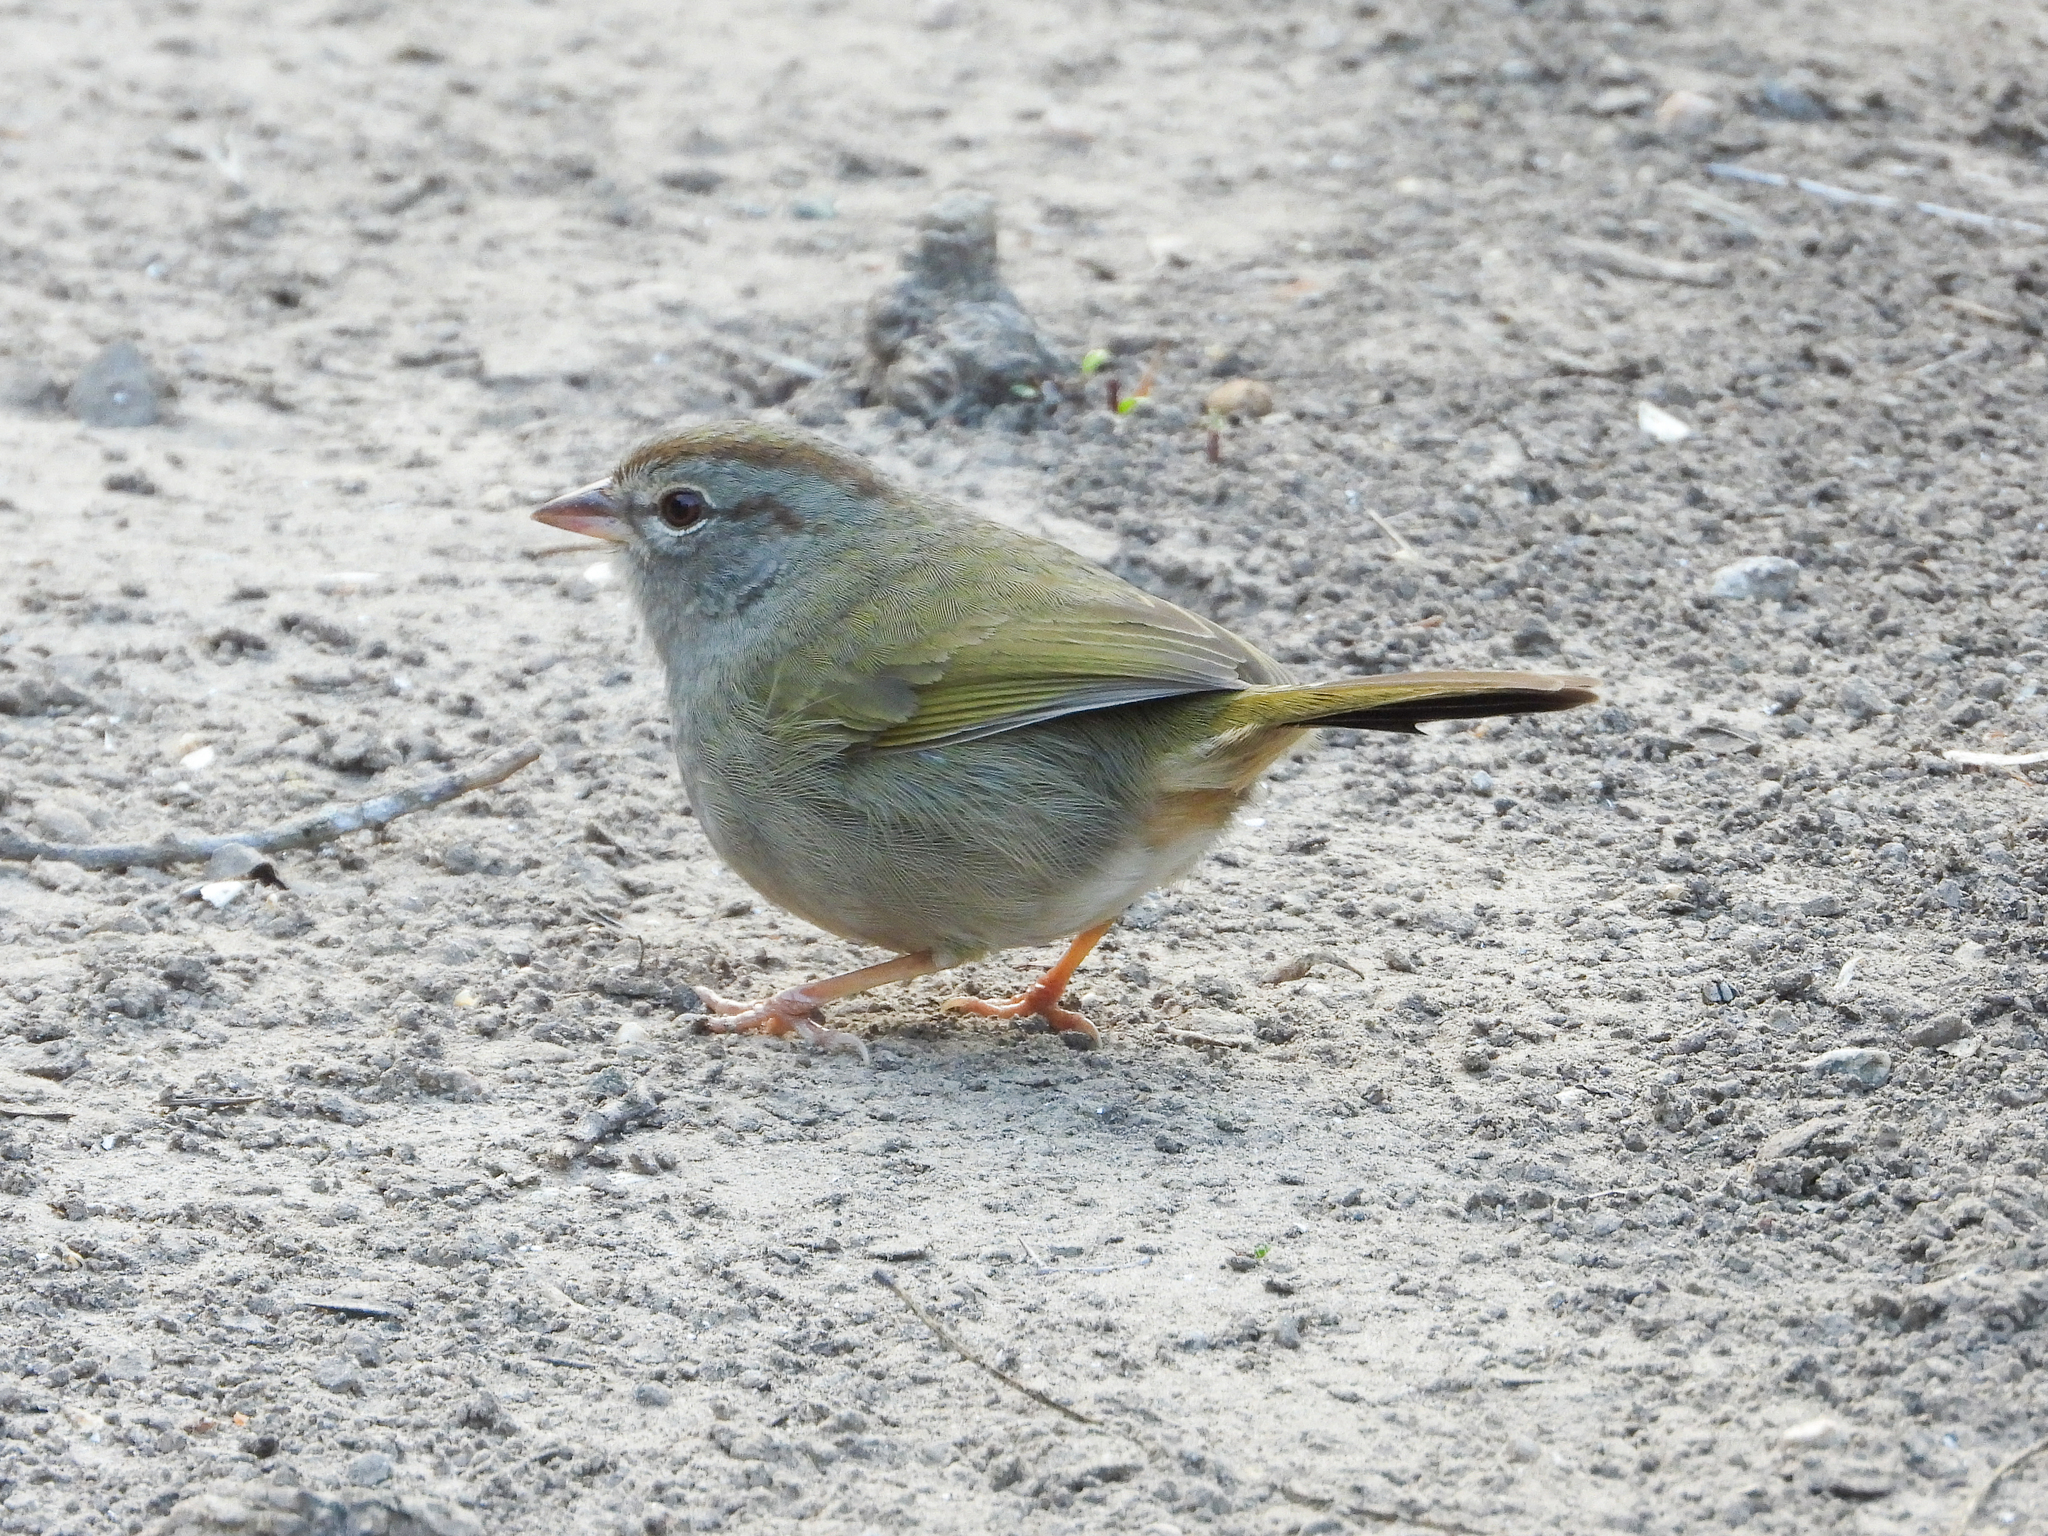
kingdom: Animalia
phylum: Chordata
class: Aves
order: Passeriformes
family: Passerellidae
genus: Arremonops
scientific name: Arremonops rufivirgatus
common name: Olive sparrow
